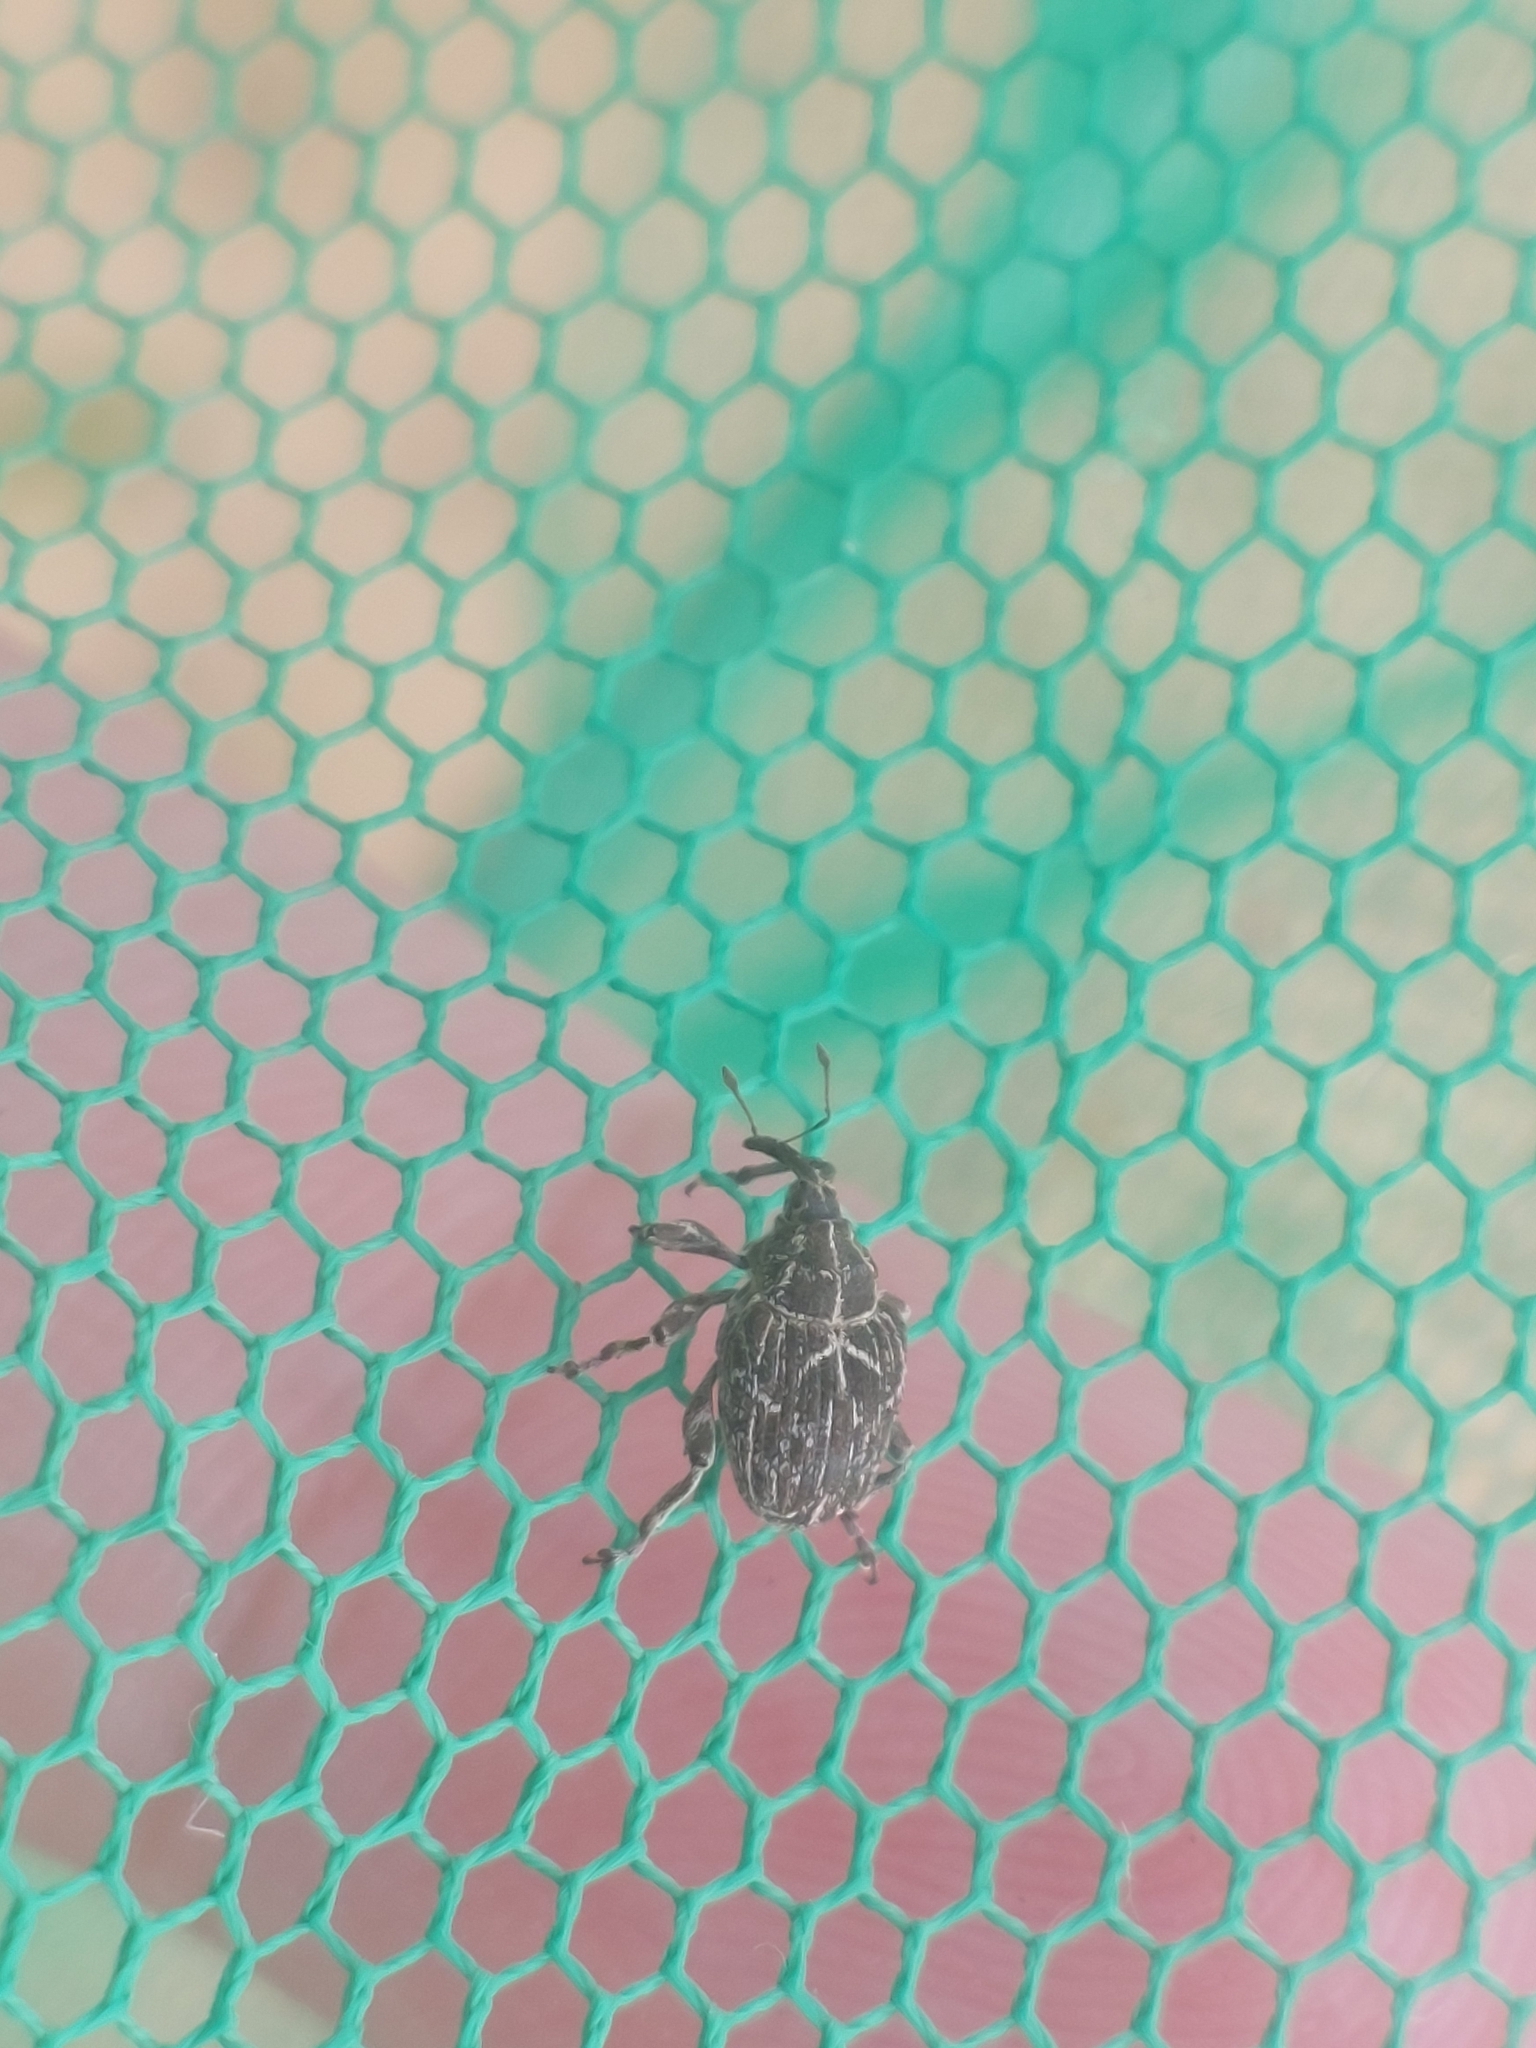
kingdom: Animalia
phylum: Arthropoda
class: Insecta
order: Coleoptera
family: Curculionidae
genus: Mogulones
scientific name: Mogulones geographicus
